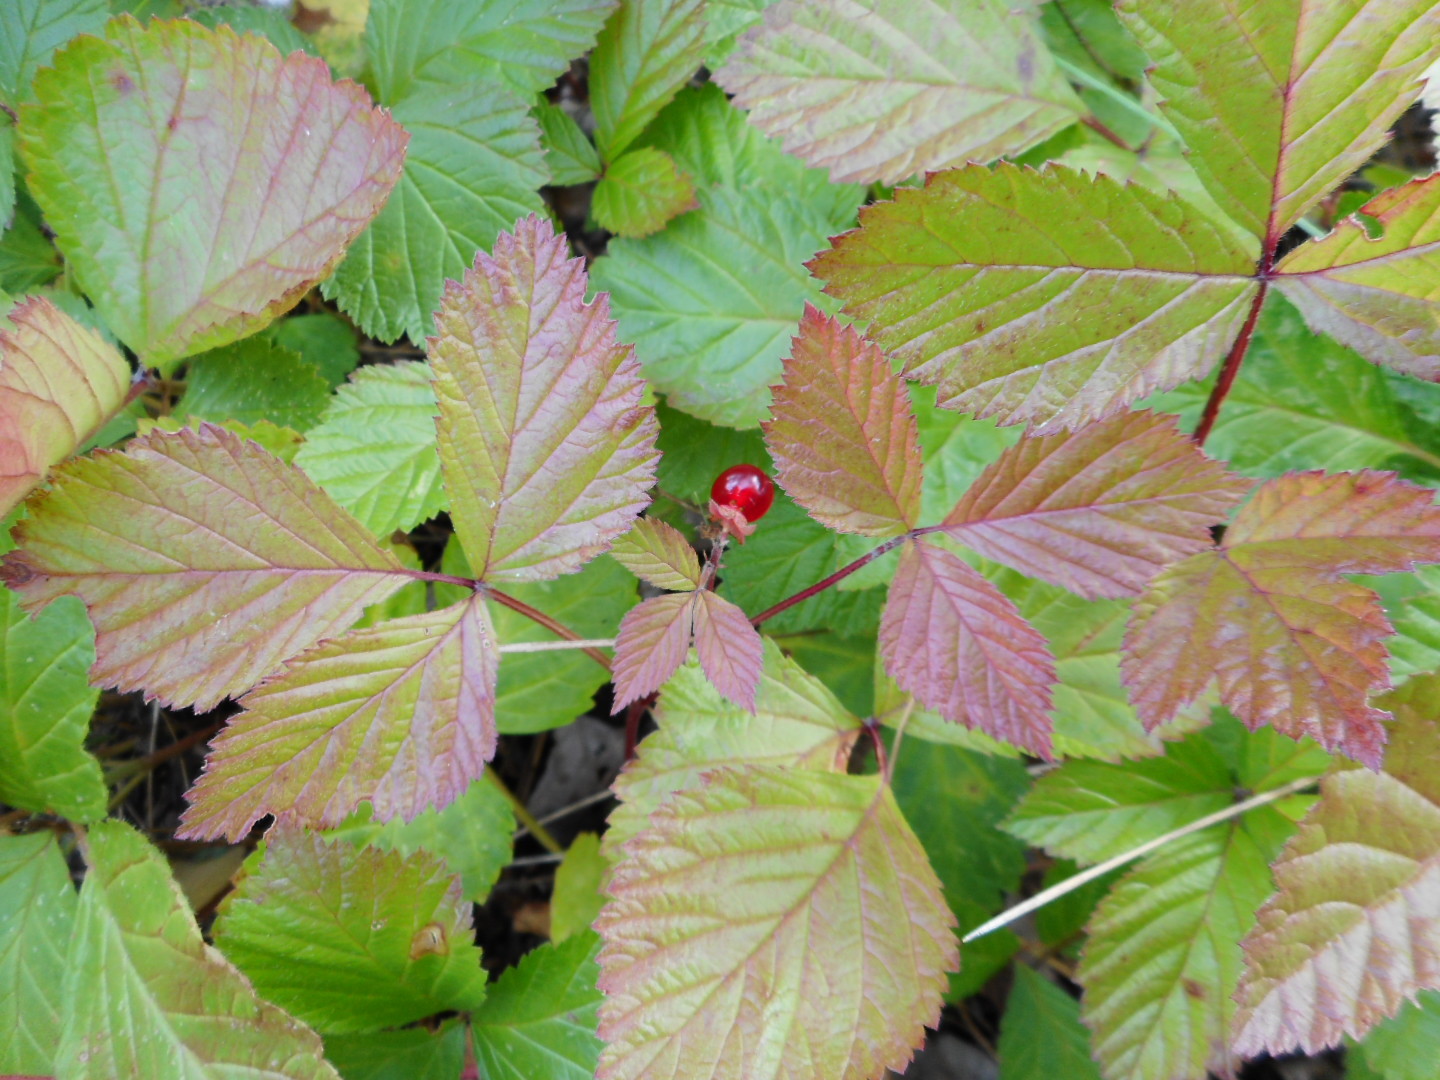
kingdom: Plantae
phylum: Tracheophyta
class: Magnoliopsida
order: Rosales
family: Rosaceae
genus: Rubus
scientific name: Rubus saxatilis
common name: Stone bramble
